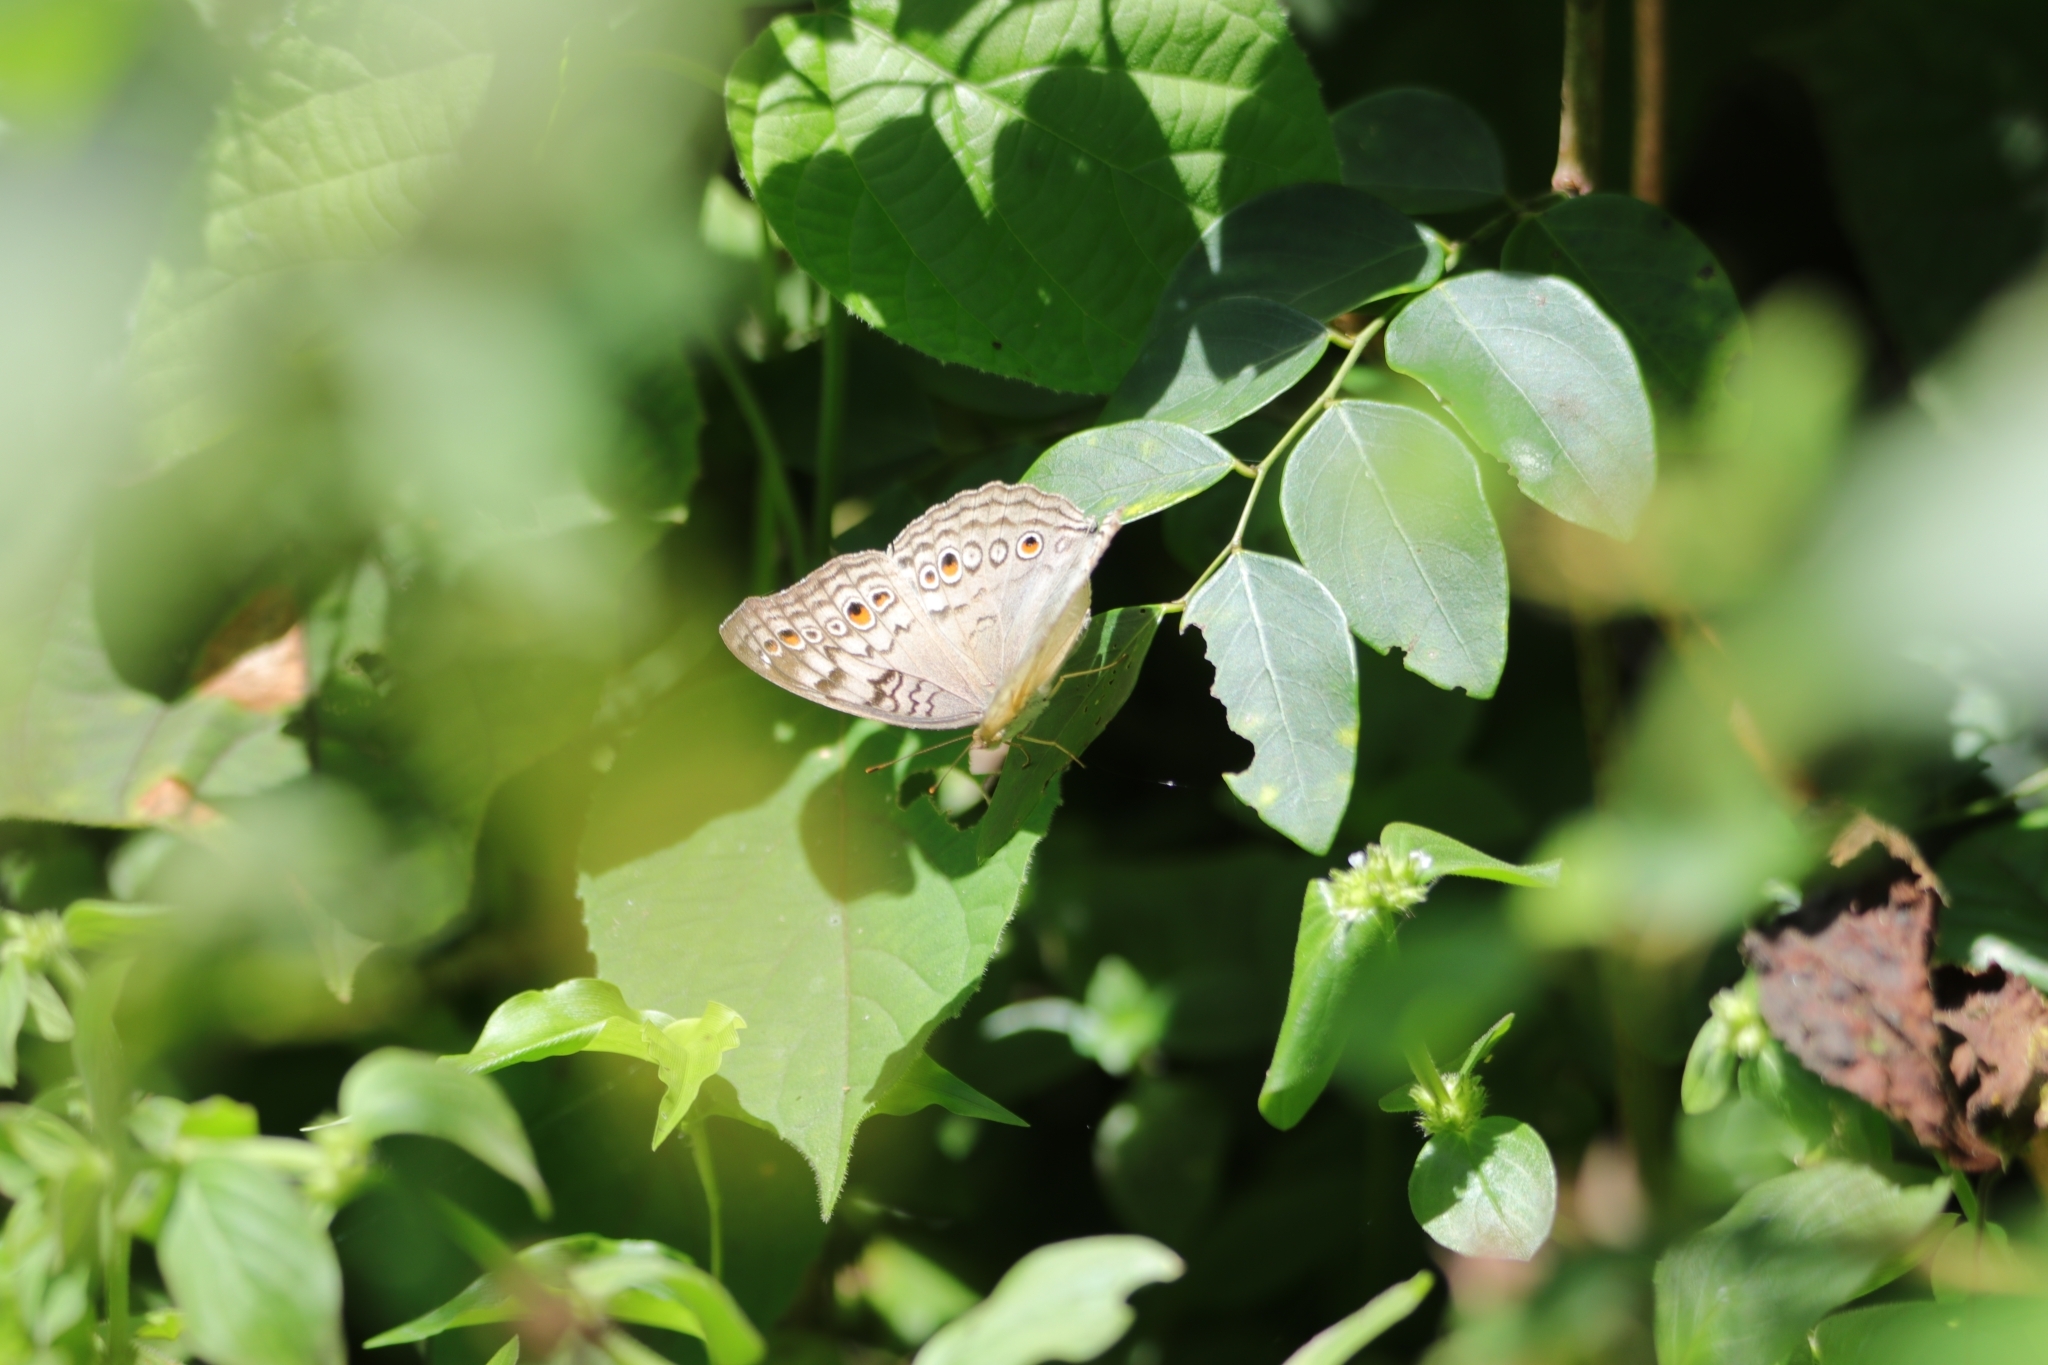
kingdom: Animalia
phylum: Arthropoda
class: Insecta
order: Lepidoptera
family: Nymphalidae
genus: Junonia
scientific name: Junonia atlites
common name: Grey pansy
